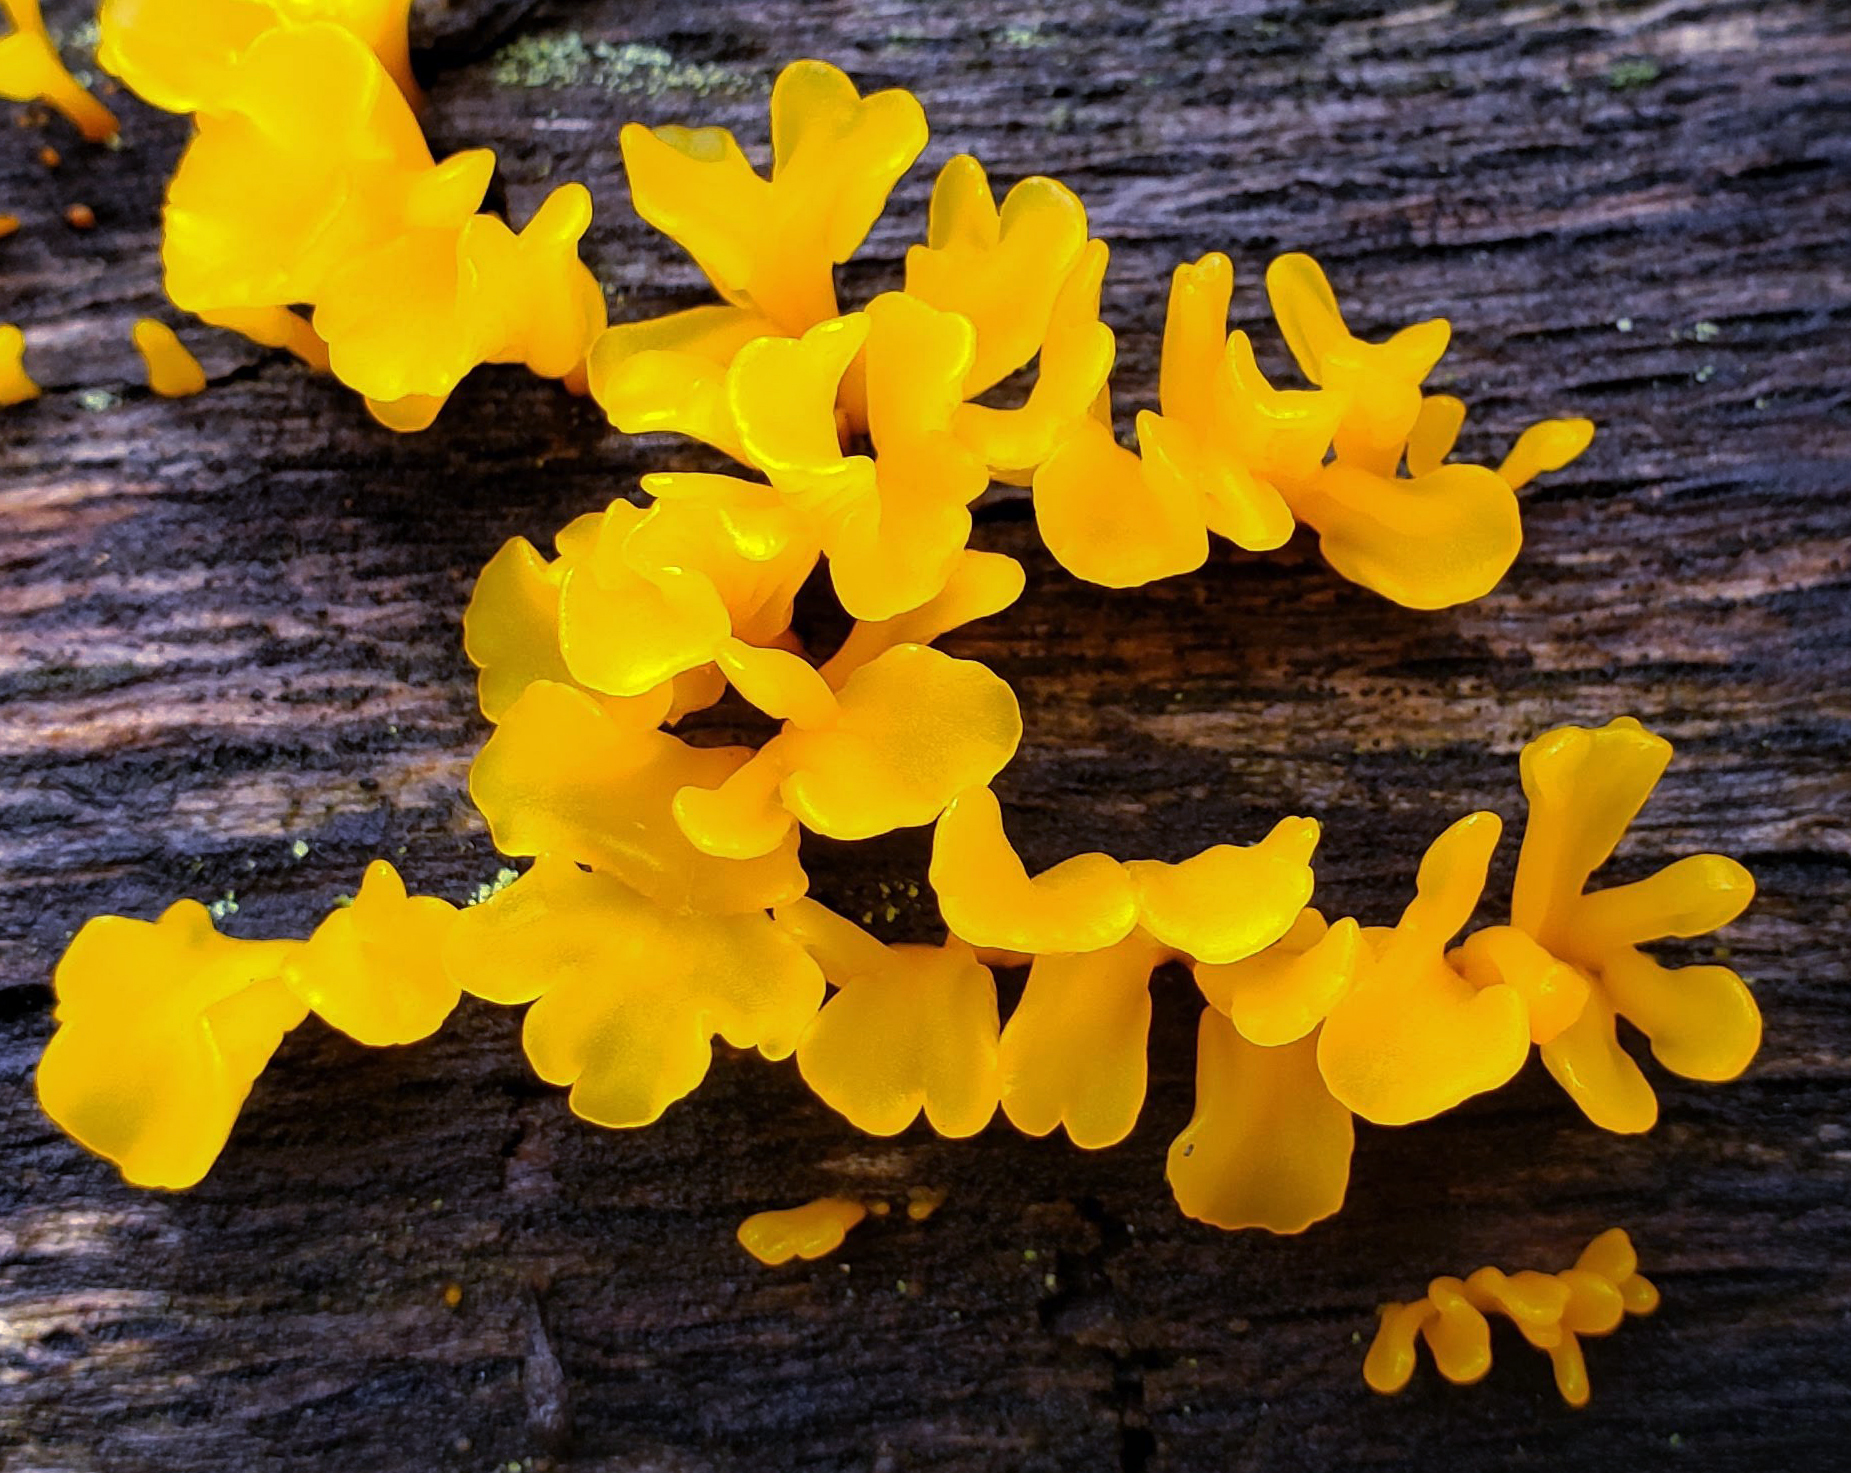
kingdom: Fungi
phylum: Basidiomycota
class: Dacrymycetes
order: Dacrymycetales
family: Dacrymycetaceae
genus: Dacrymyces
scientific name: Dacrymyces spathularius
